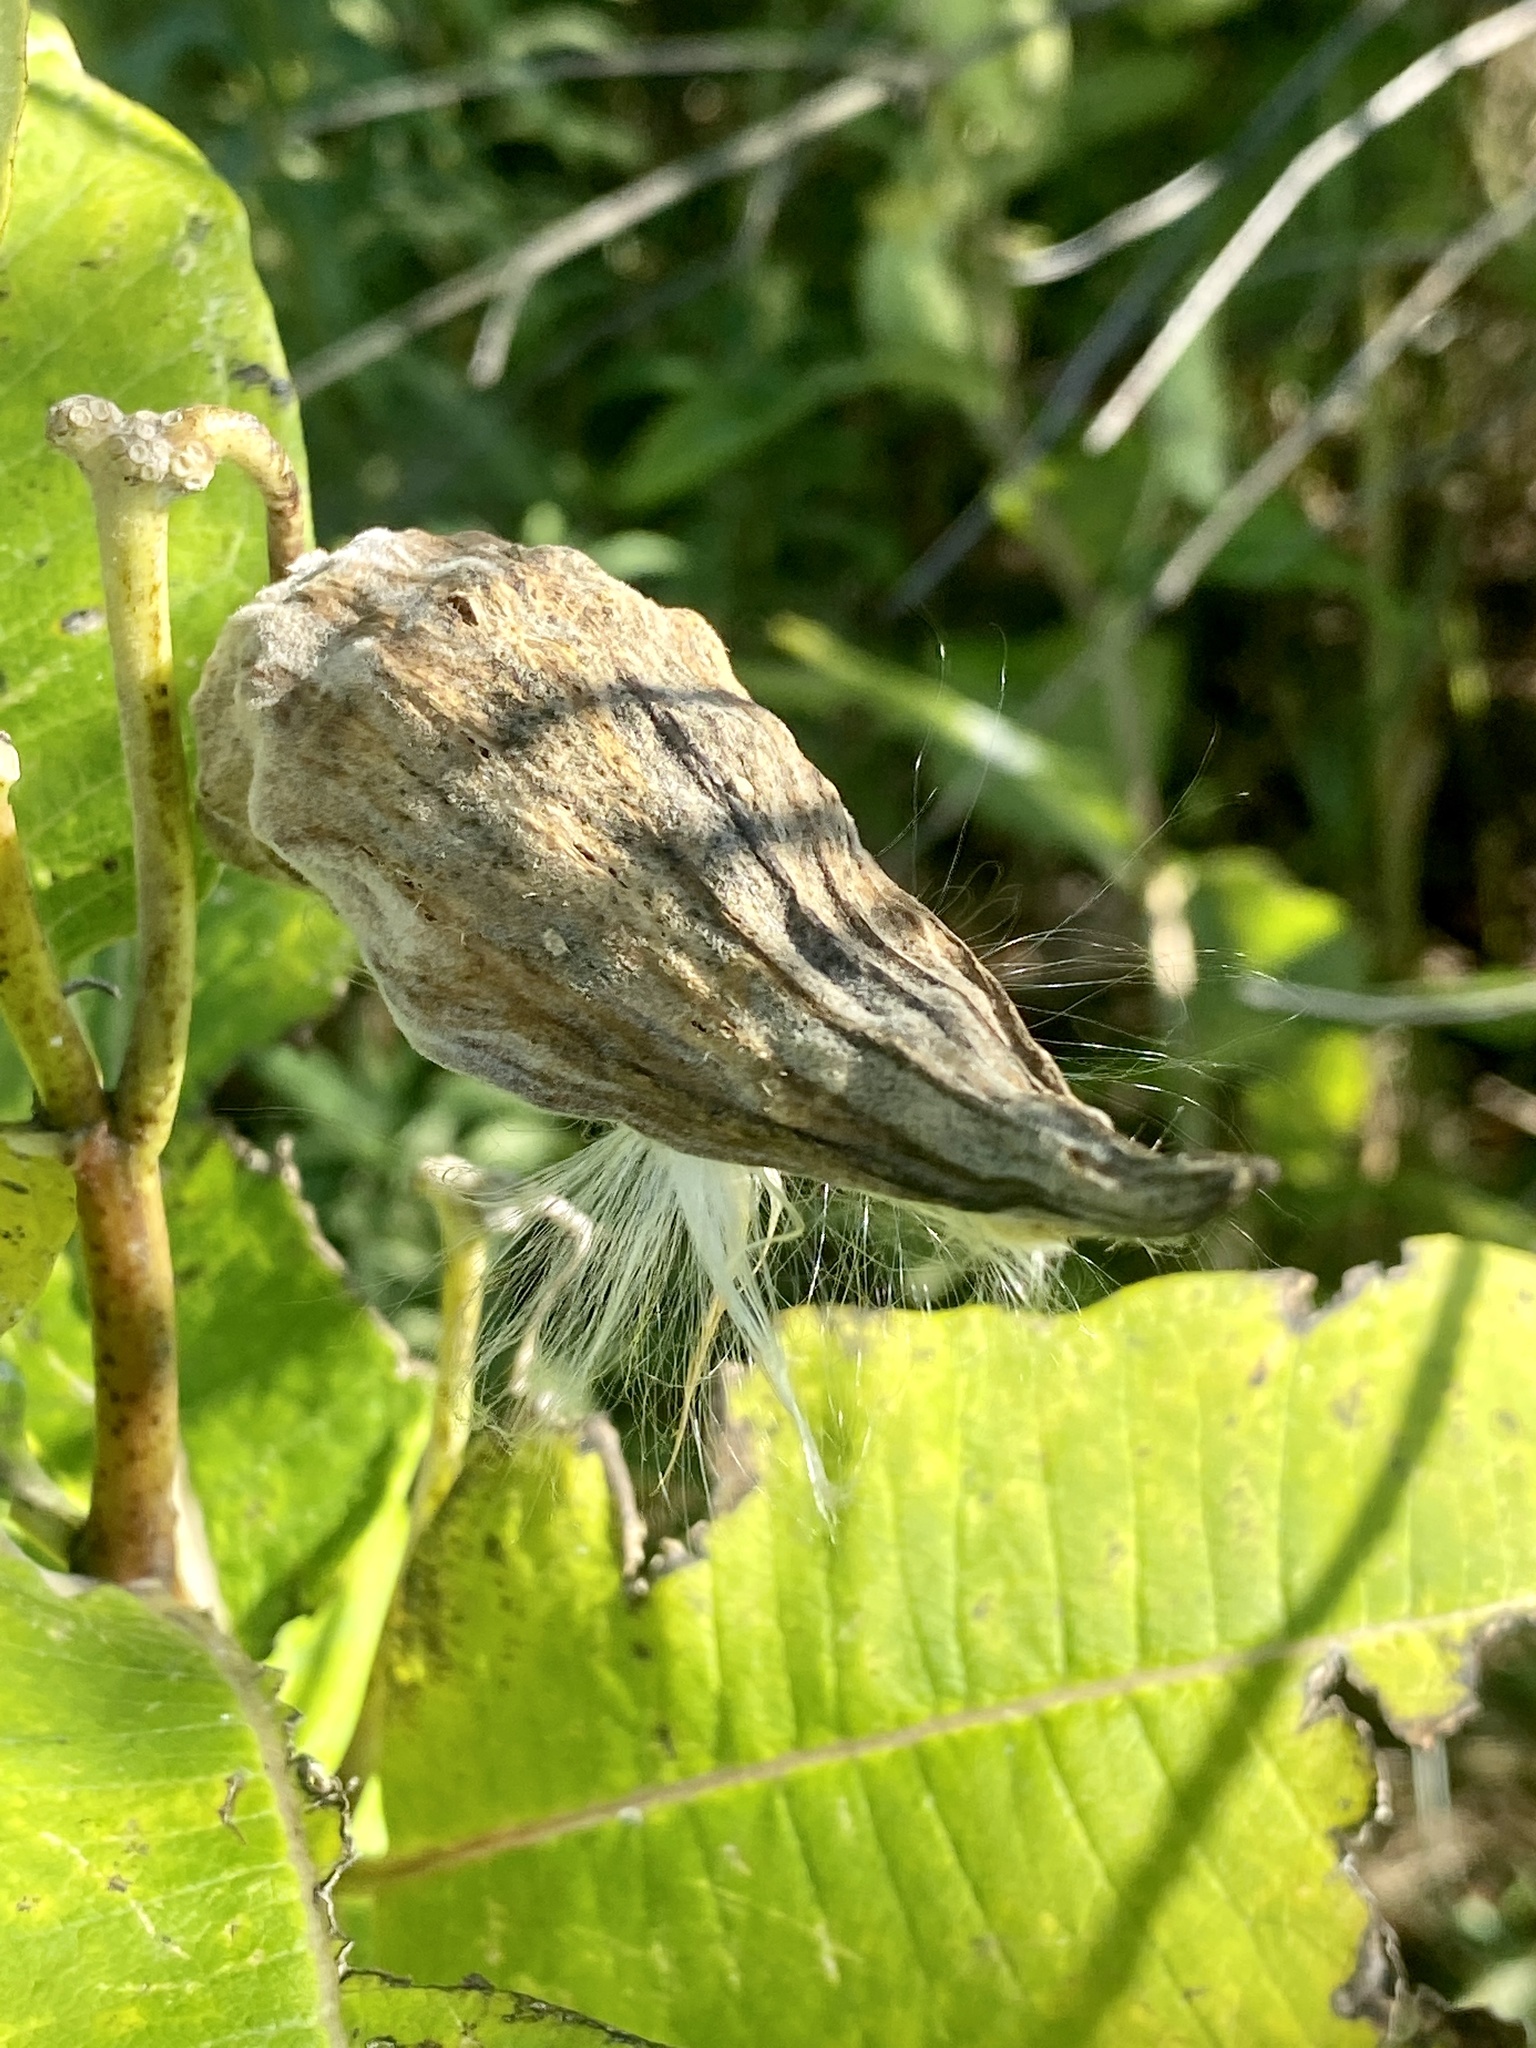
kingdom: Plantae
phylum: Tracheophyta
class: Magnoliopsida
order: Gentianales
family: Apocynaceae
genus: Asclepias
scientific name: Asclepias syriaca
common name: Common milkweed
